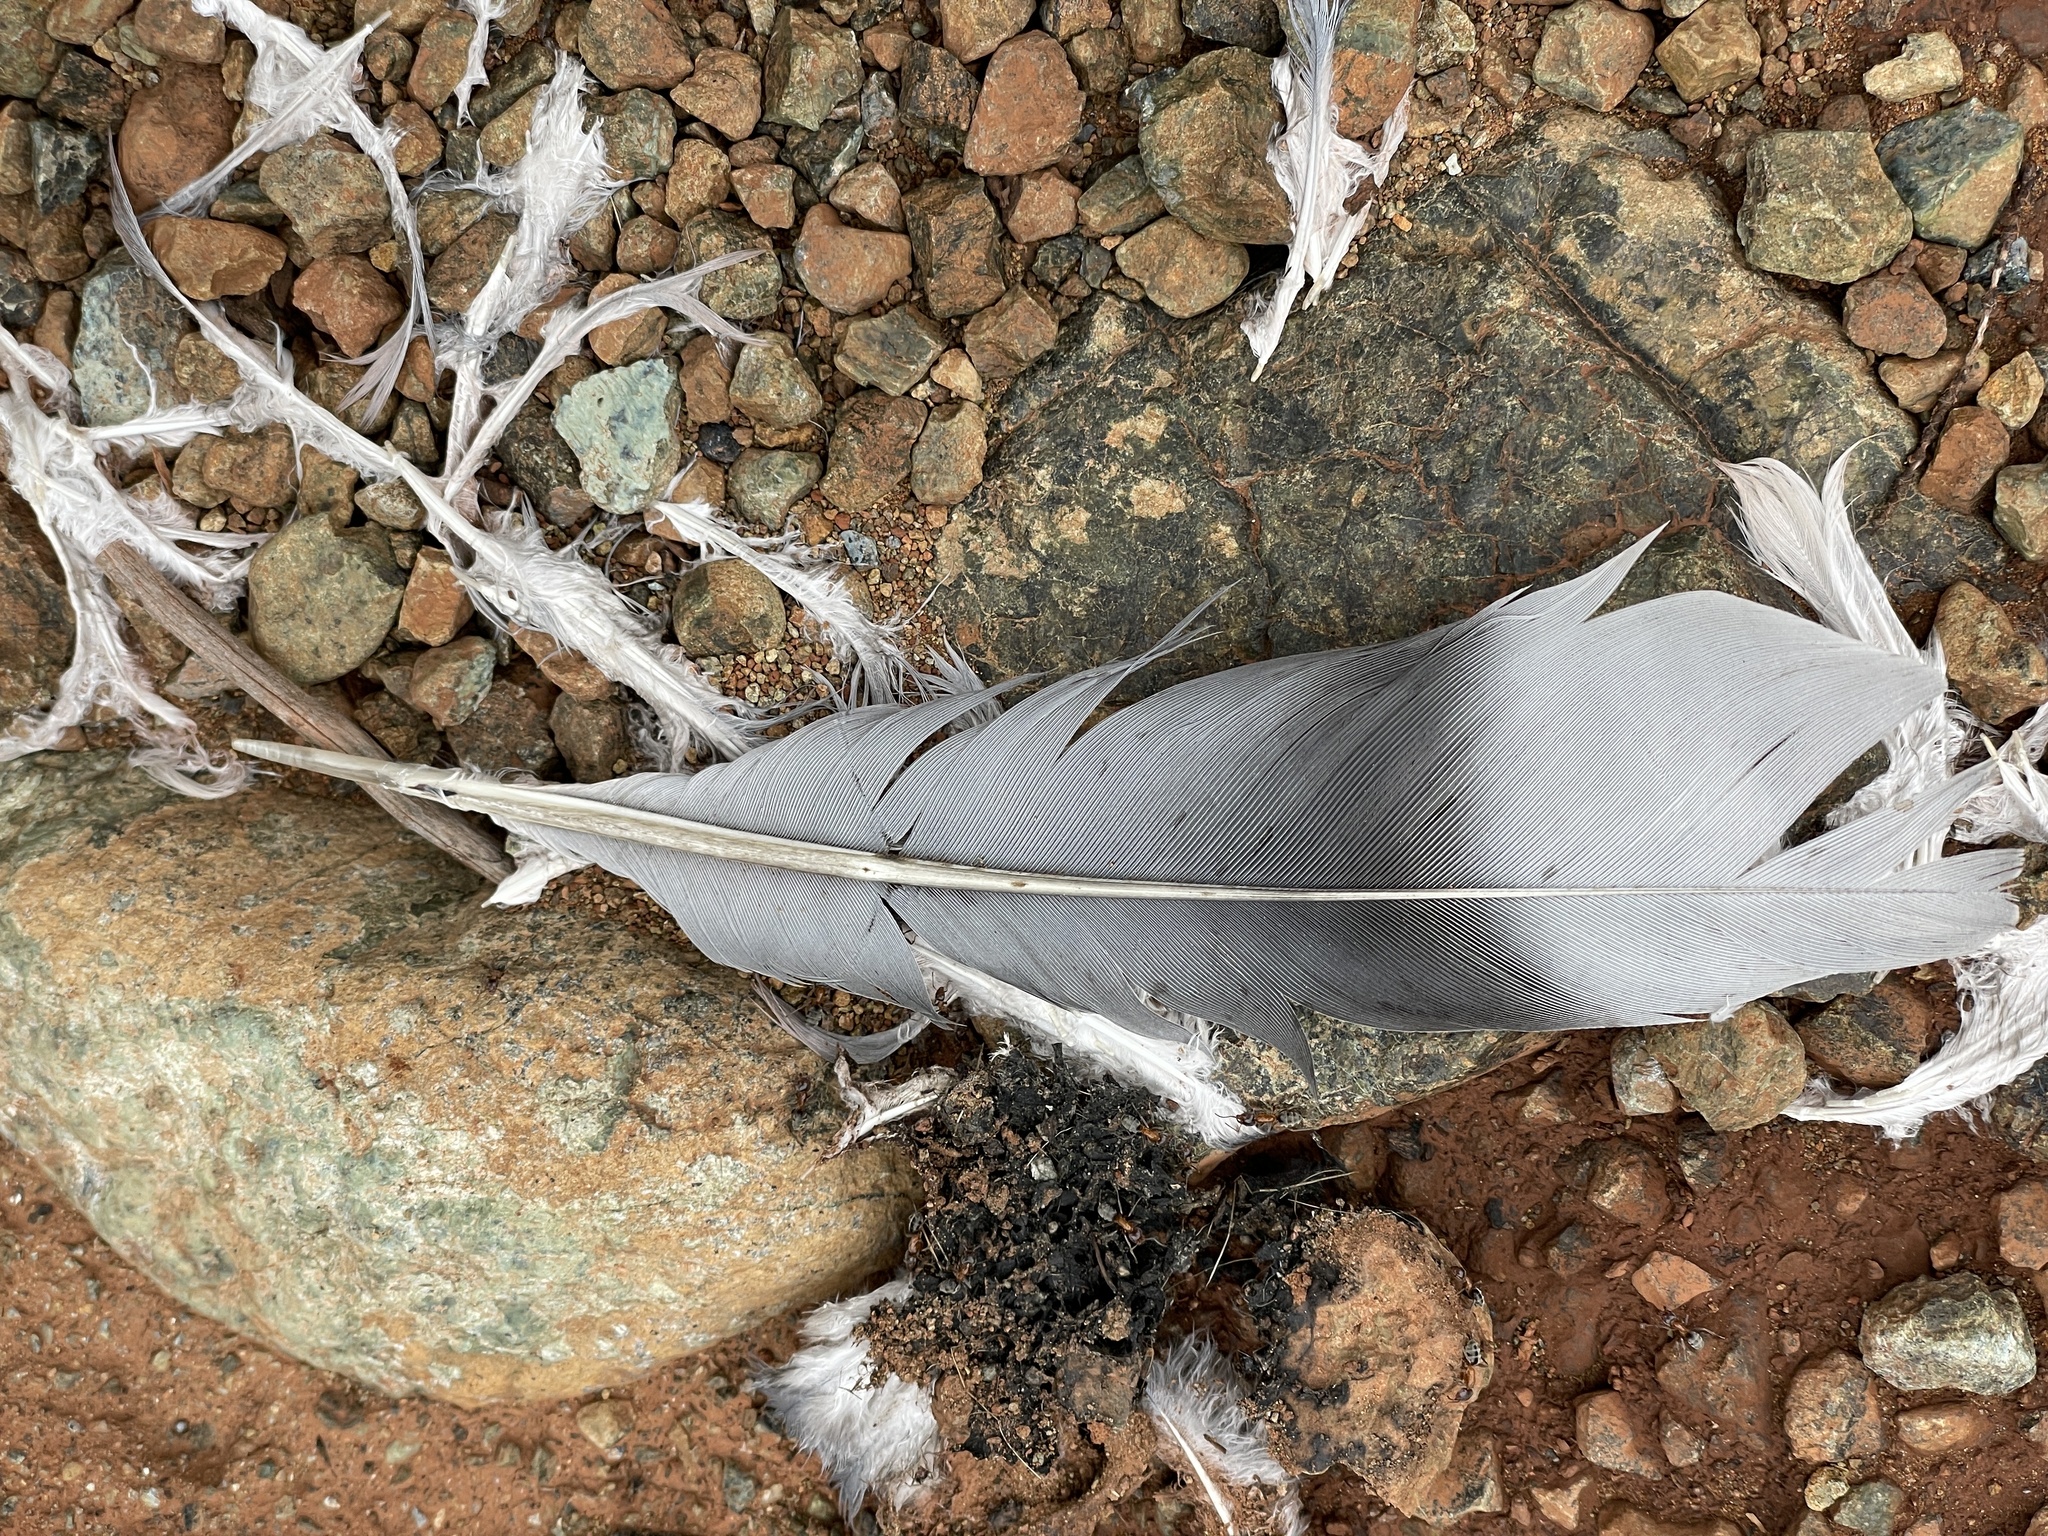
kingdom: Animalia
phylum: Chordata
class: Aves
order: Columbiformes
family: Columbidae
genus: Patagioenas
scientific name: Patagioenas fasciata
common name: Band-tailed pigeon
